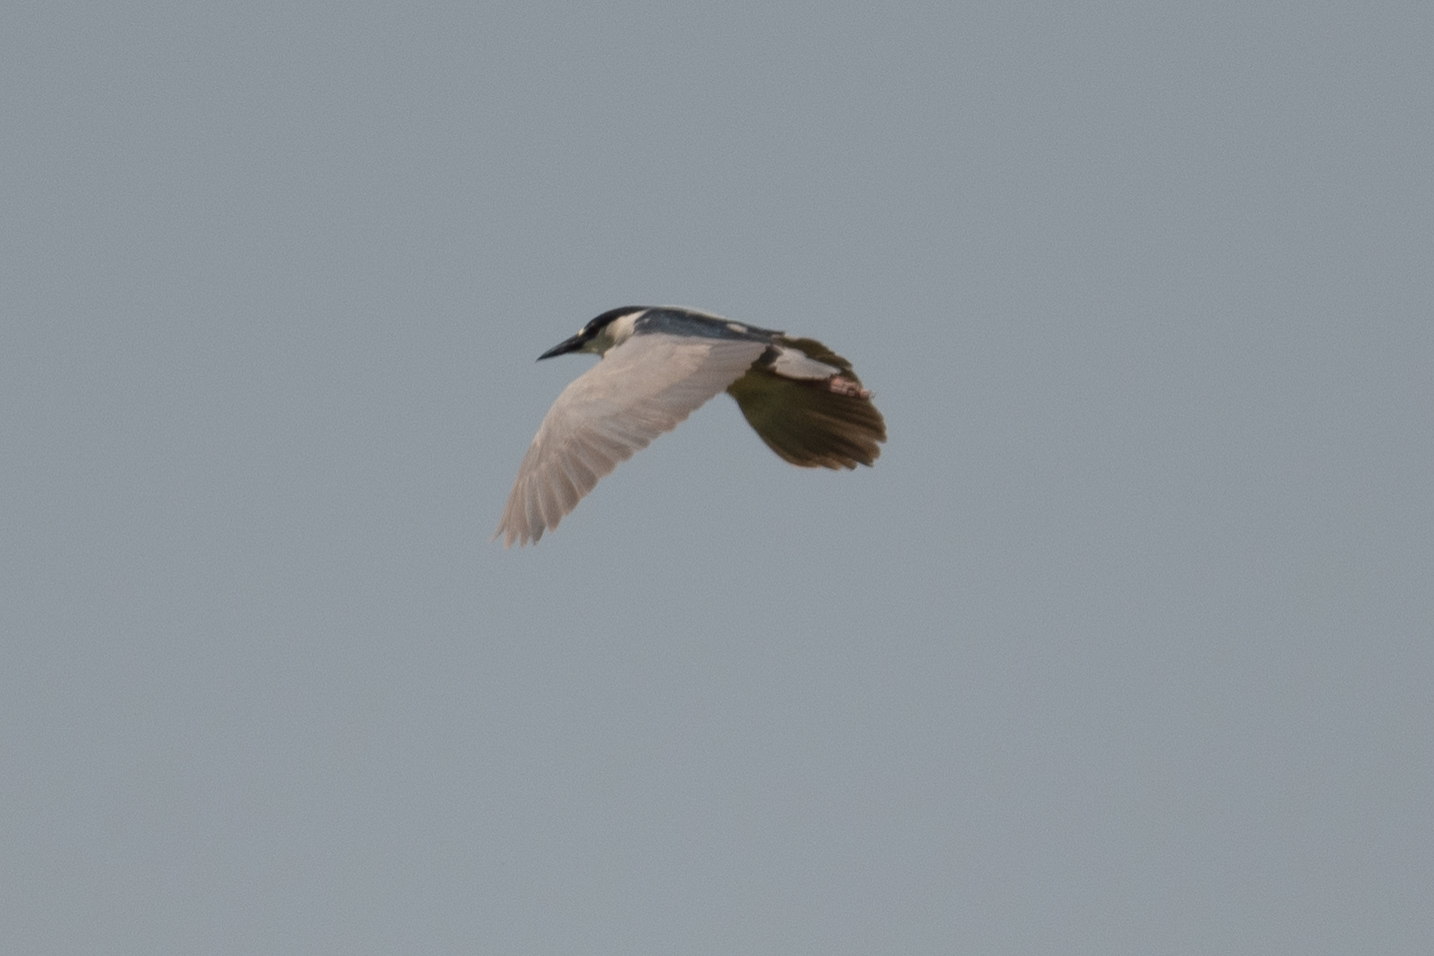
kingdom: Animalia
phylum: Chordata
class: Aves
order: Pelecaniformes
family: Ardeidae
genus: Nycticorax
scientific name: Nycticorax nycticorax
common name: Black-crowned night heron
